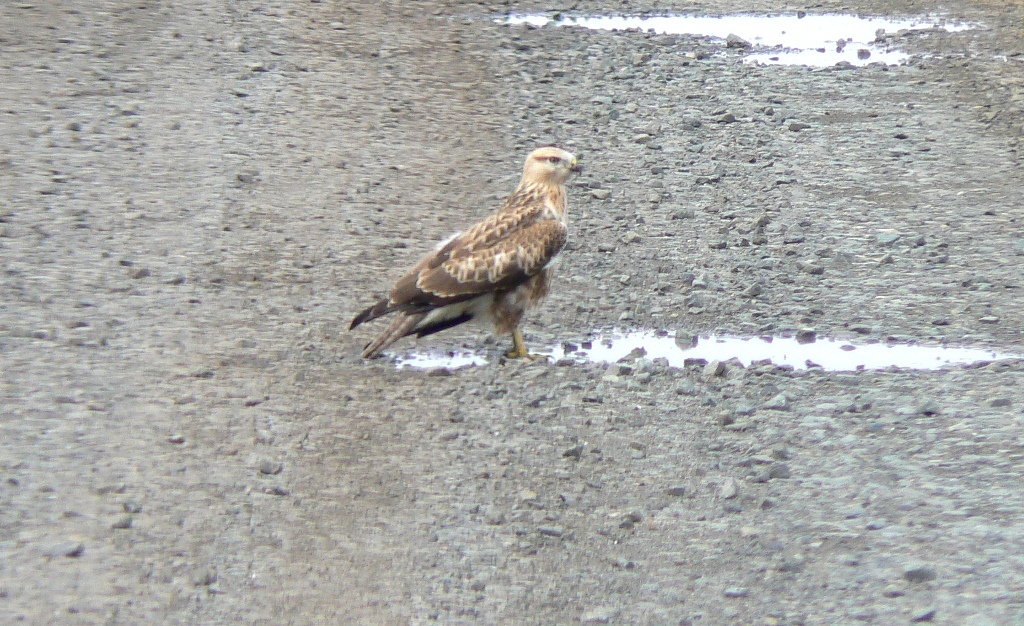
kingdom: Animalia
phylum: Chordata
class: Aves
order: Accipitriformes
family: Accipitridae
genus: Buteo
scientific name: Buteo buteo
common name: Common buzzard
